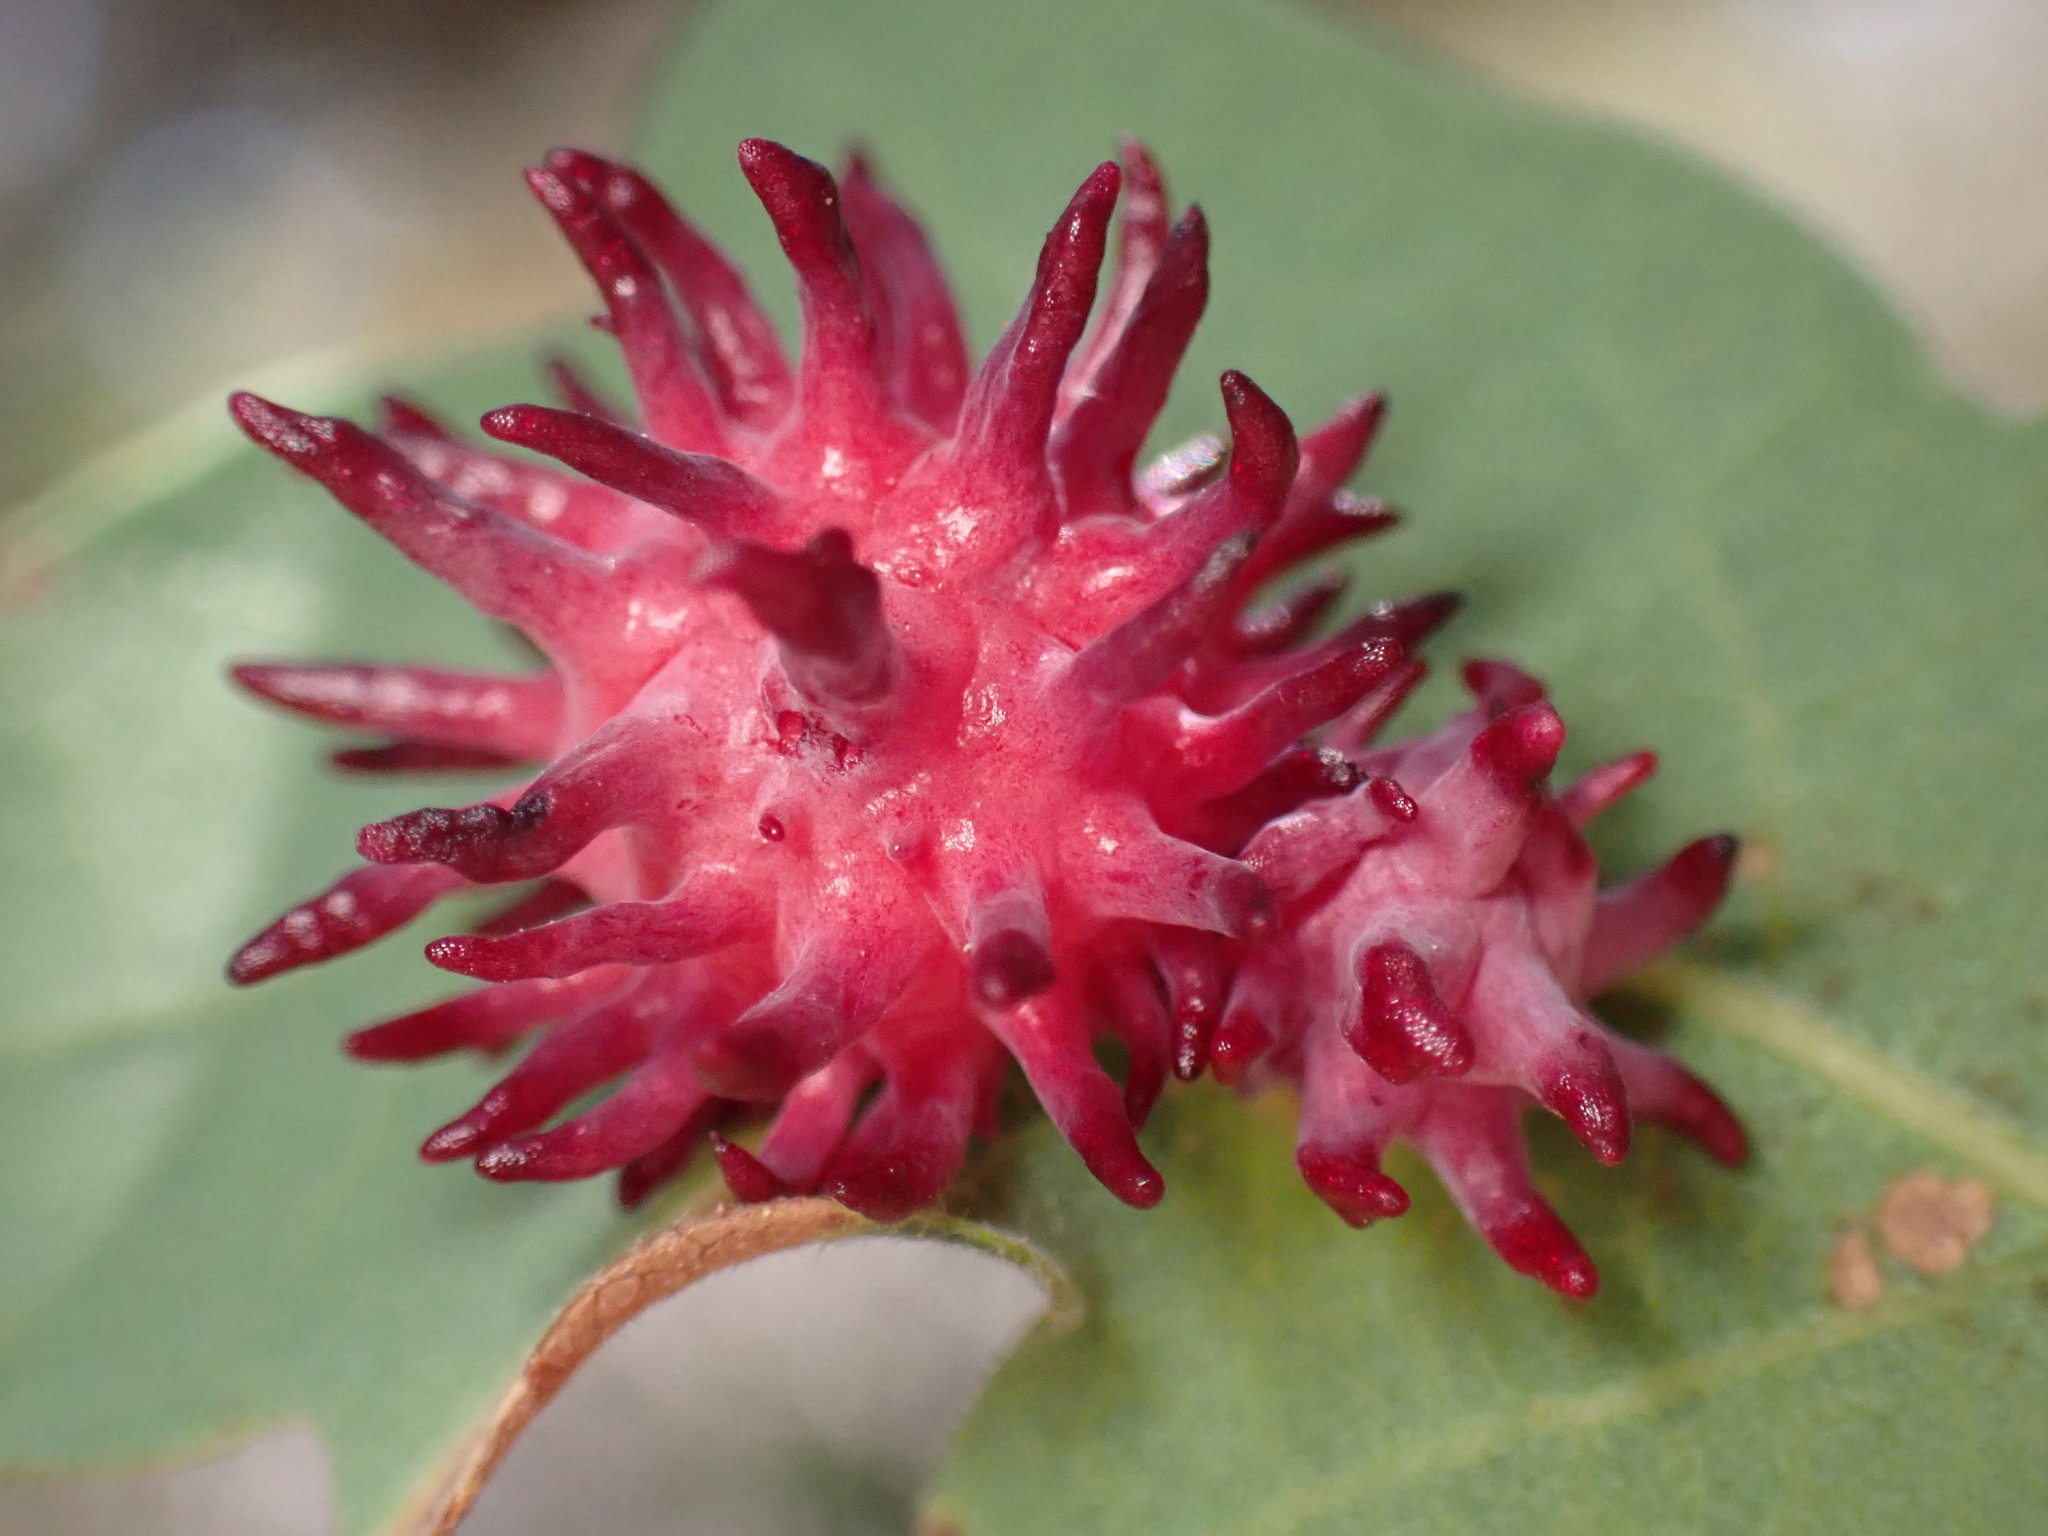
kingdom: Animalia
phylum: Arthropoda
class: Insecta
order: Hymenoptera
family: Cynipidae
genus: Cynips
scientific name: Cynips
